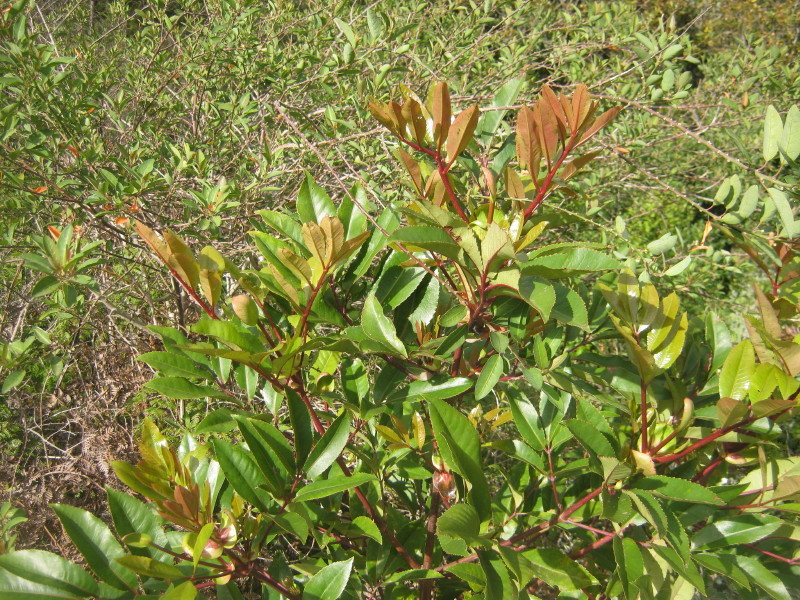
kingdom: Plantae
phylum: Tracheophyta
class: Magnoliopsida
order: Oxalidales
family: Cunoniaceae
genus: Cunonia
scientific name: Cunonia capensis
